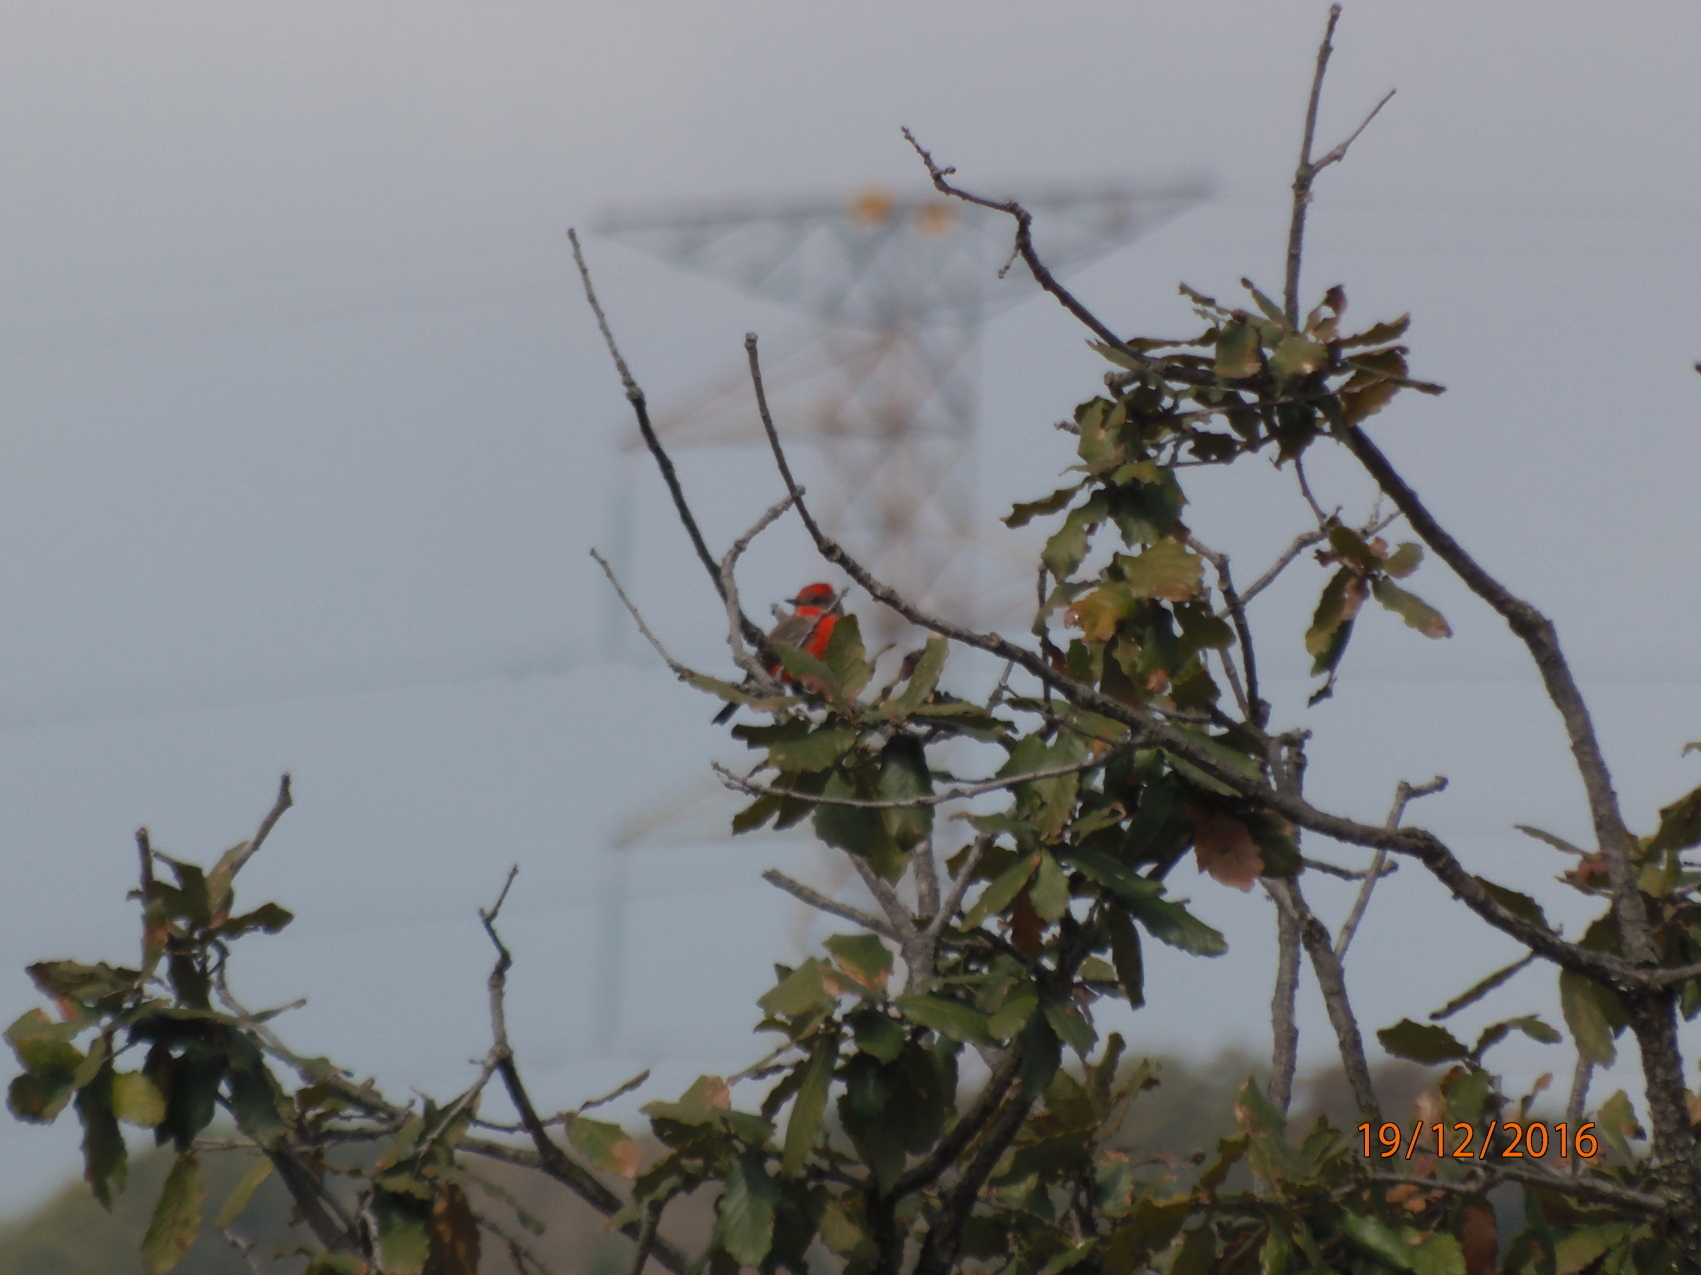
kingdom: Animalia
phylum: Chordata
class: Aves
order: Passeriformes
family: Tyrannidae
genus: Pyrocephalus
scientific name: Pyrocephalus rubinus
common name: Vermilion flycatcher
